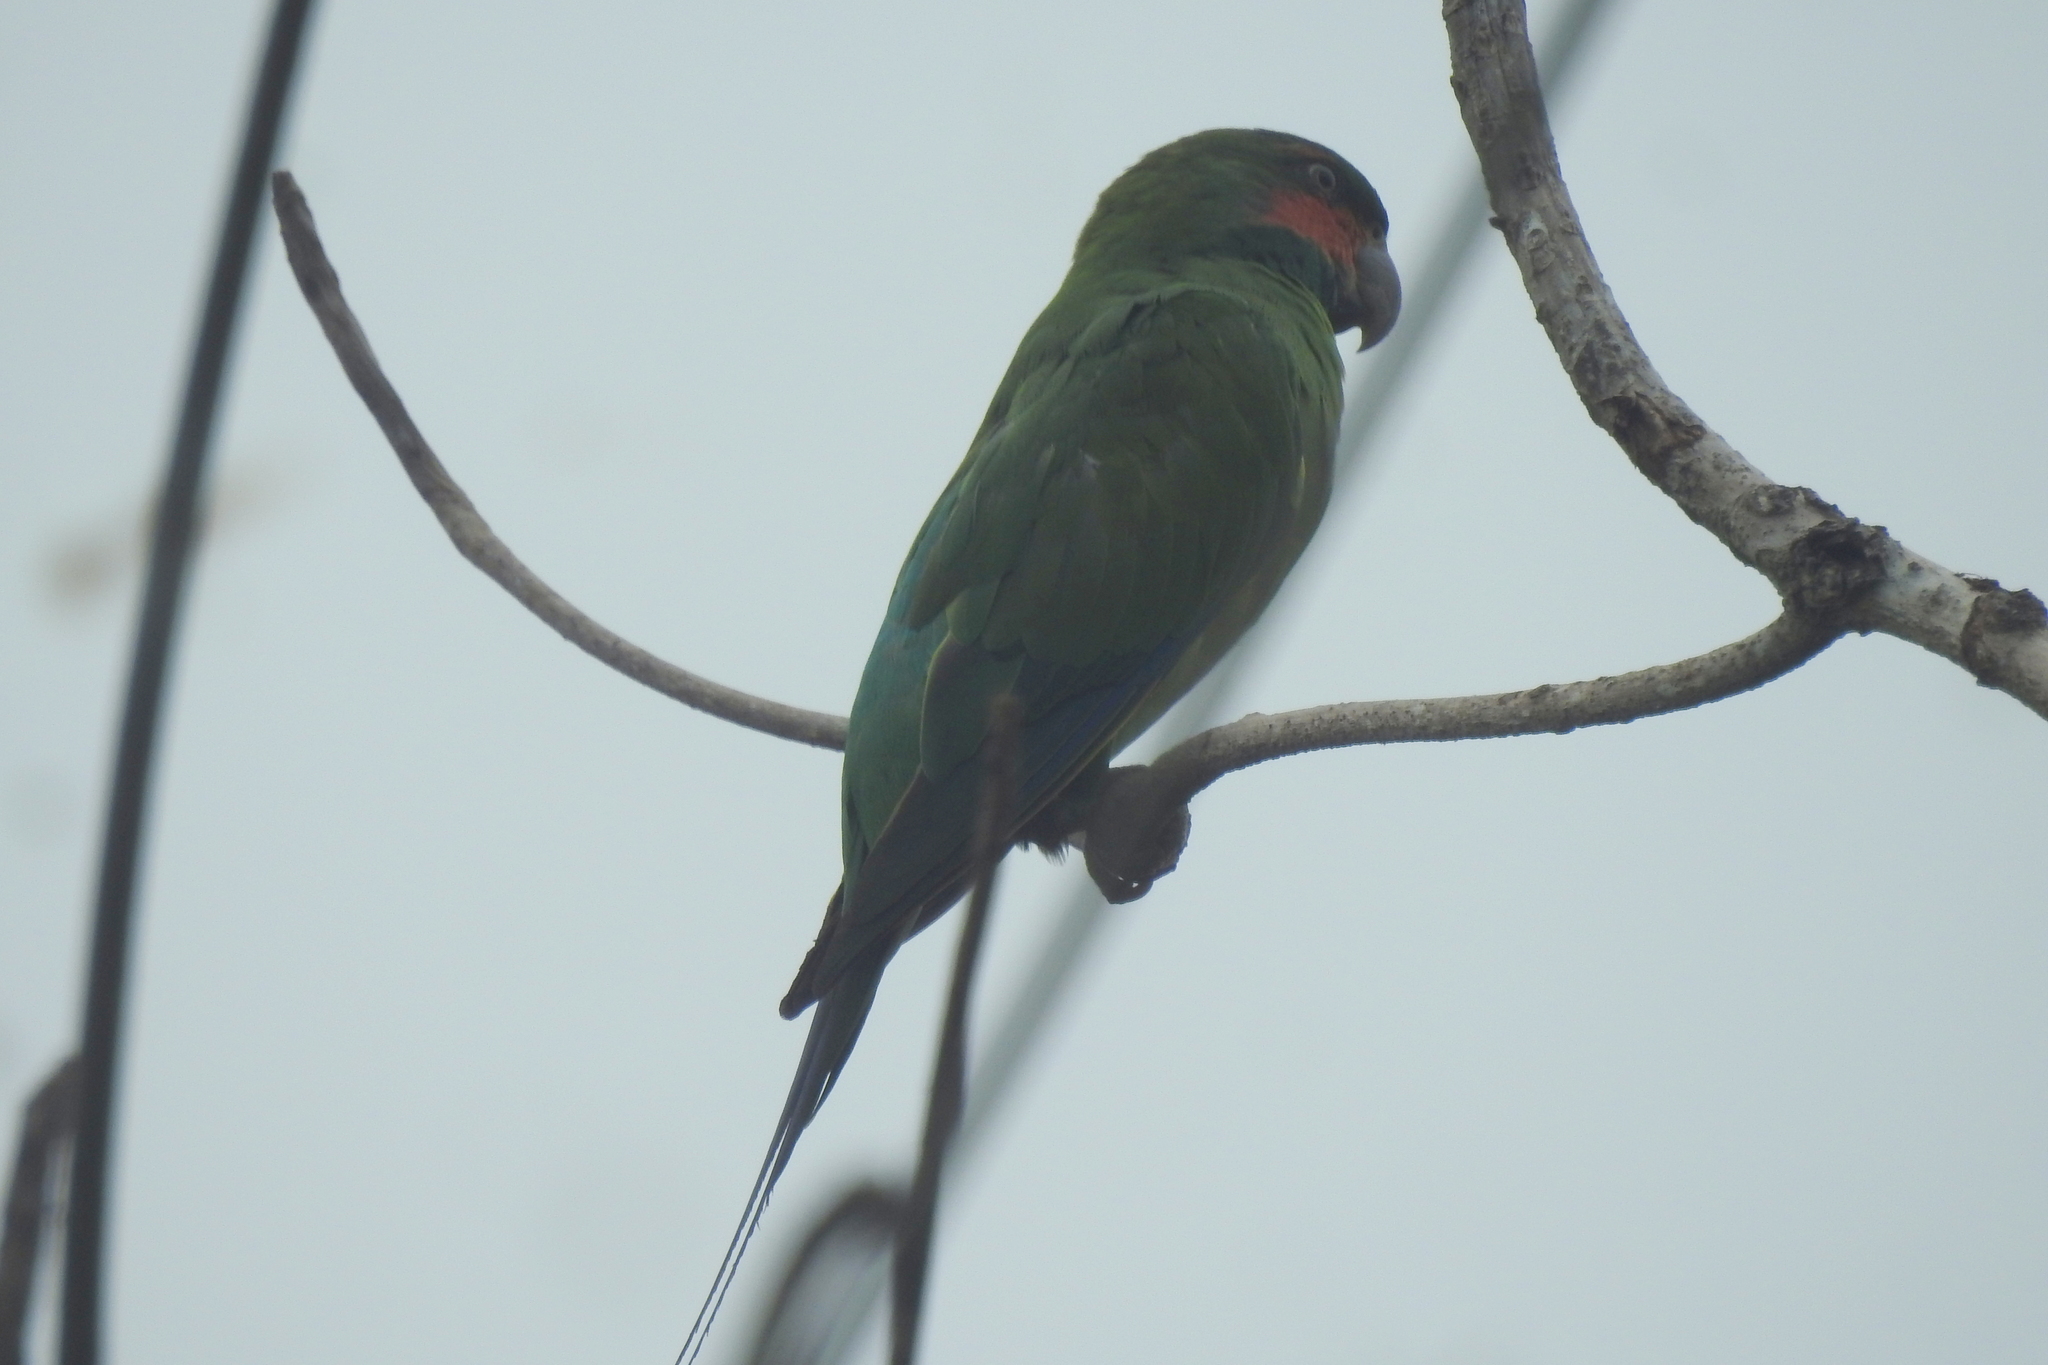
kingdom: Animalia
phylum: Chordata
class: Aves
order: Psittaciformes
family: Psittacidae
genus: Psittacula
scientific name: Psittacula longicauda
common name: Long-tailed parakeet
